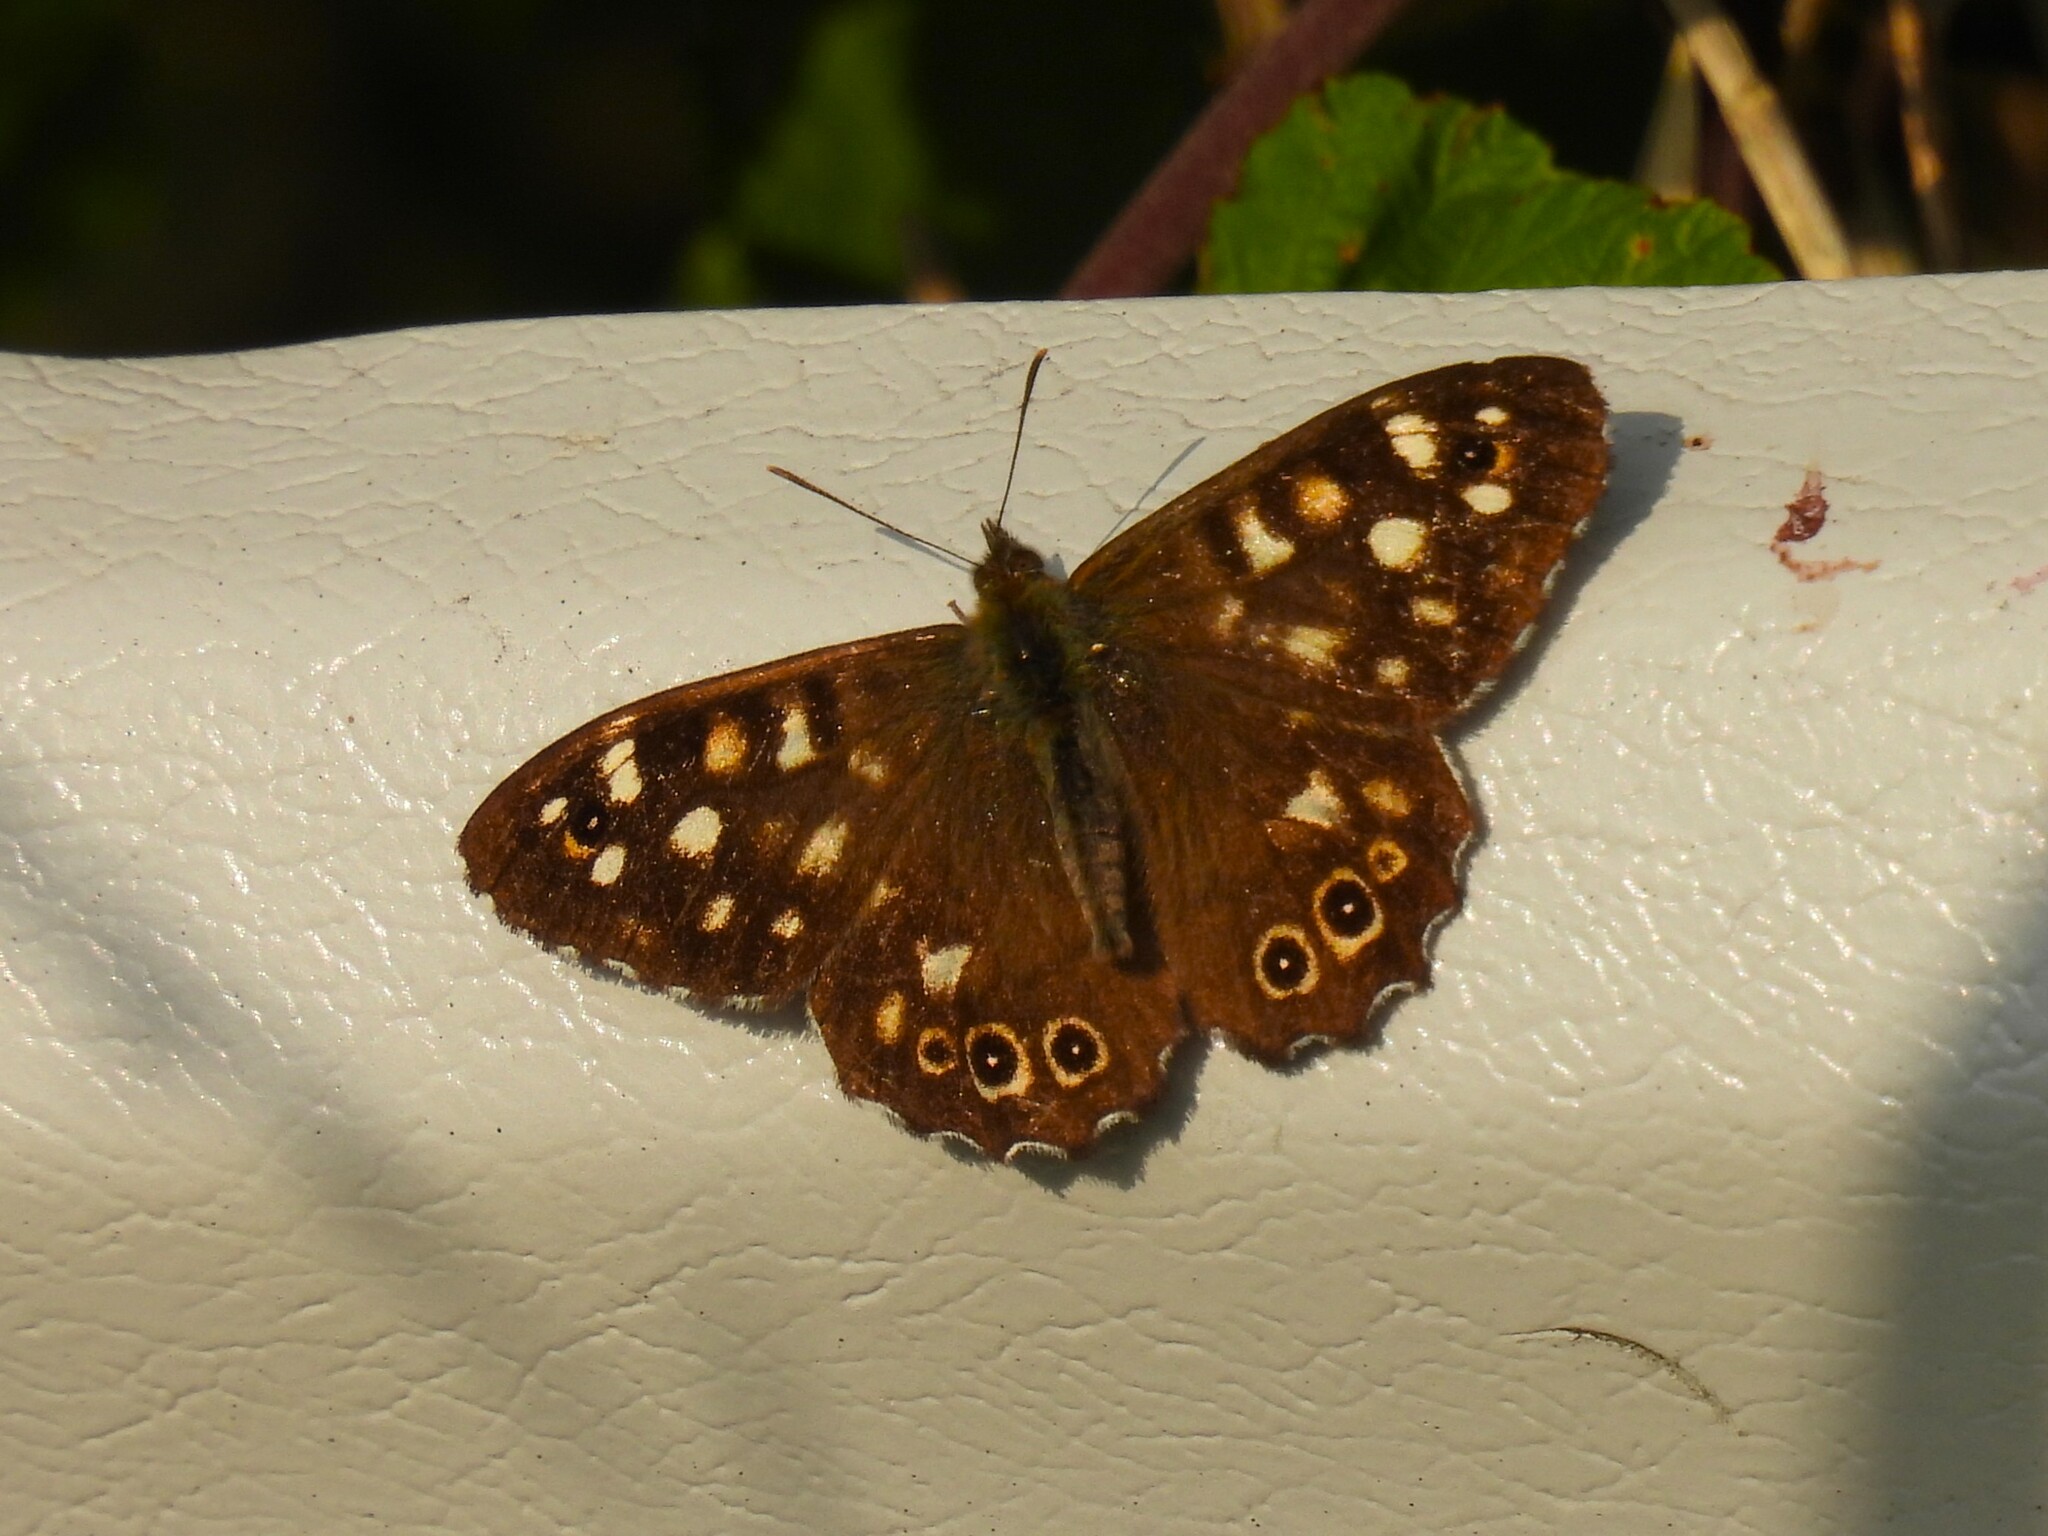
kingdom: Animalia
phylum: Arthropoda
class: Insecta
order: Lepidoptera
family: Nymphalidae
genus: Pararge
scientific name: Pararge aegeria
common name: Speckled wood
